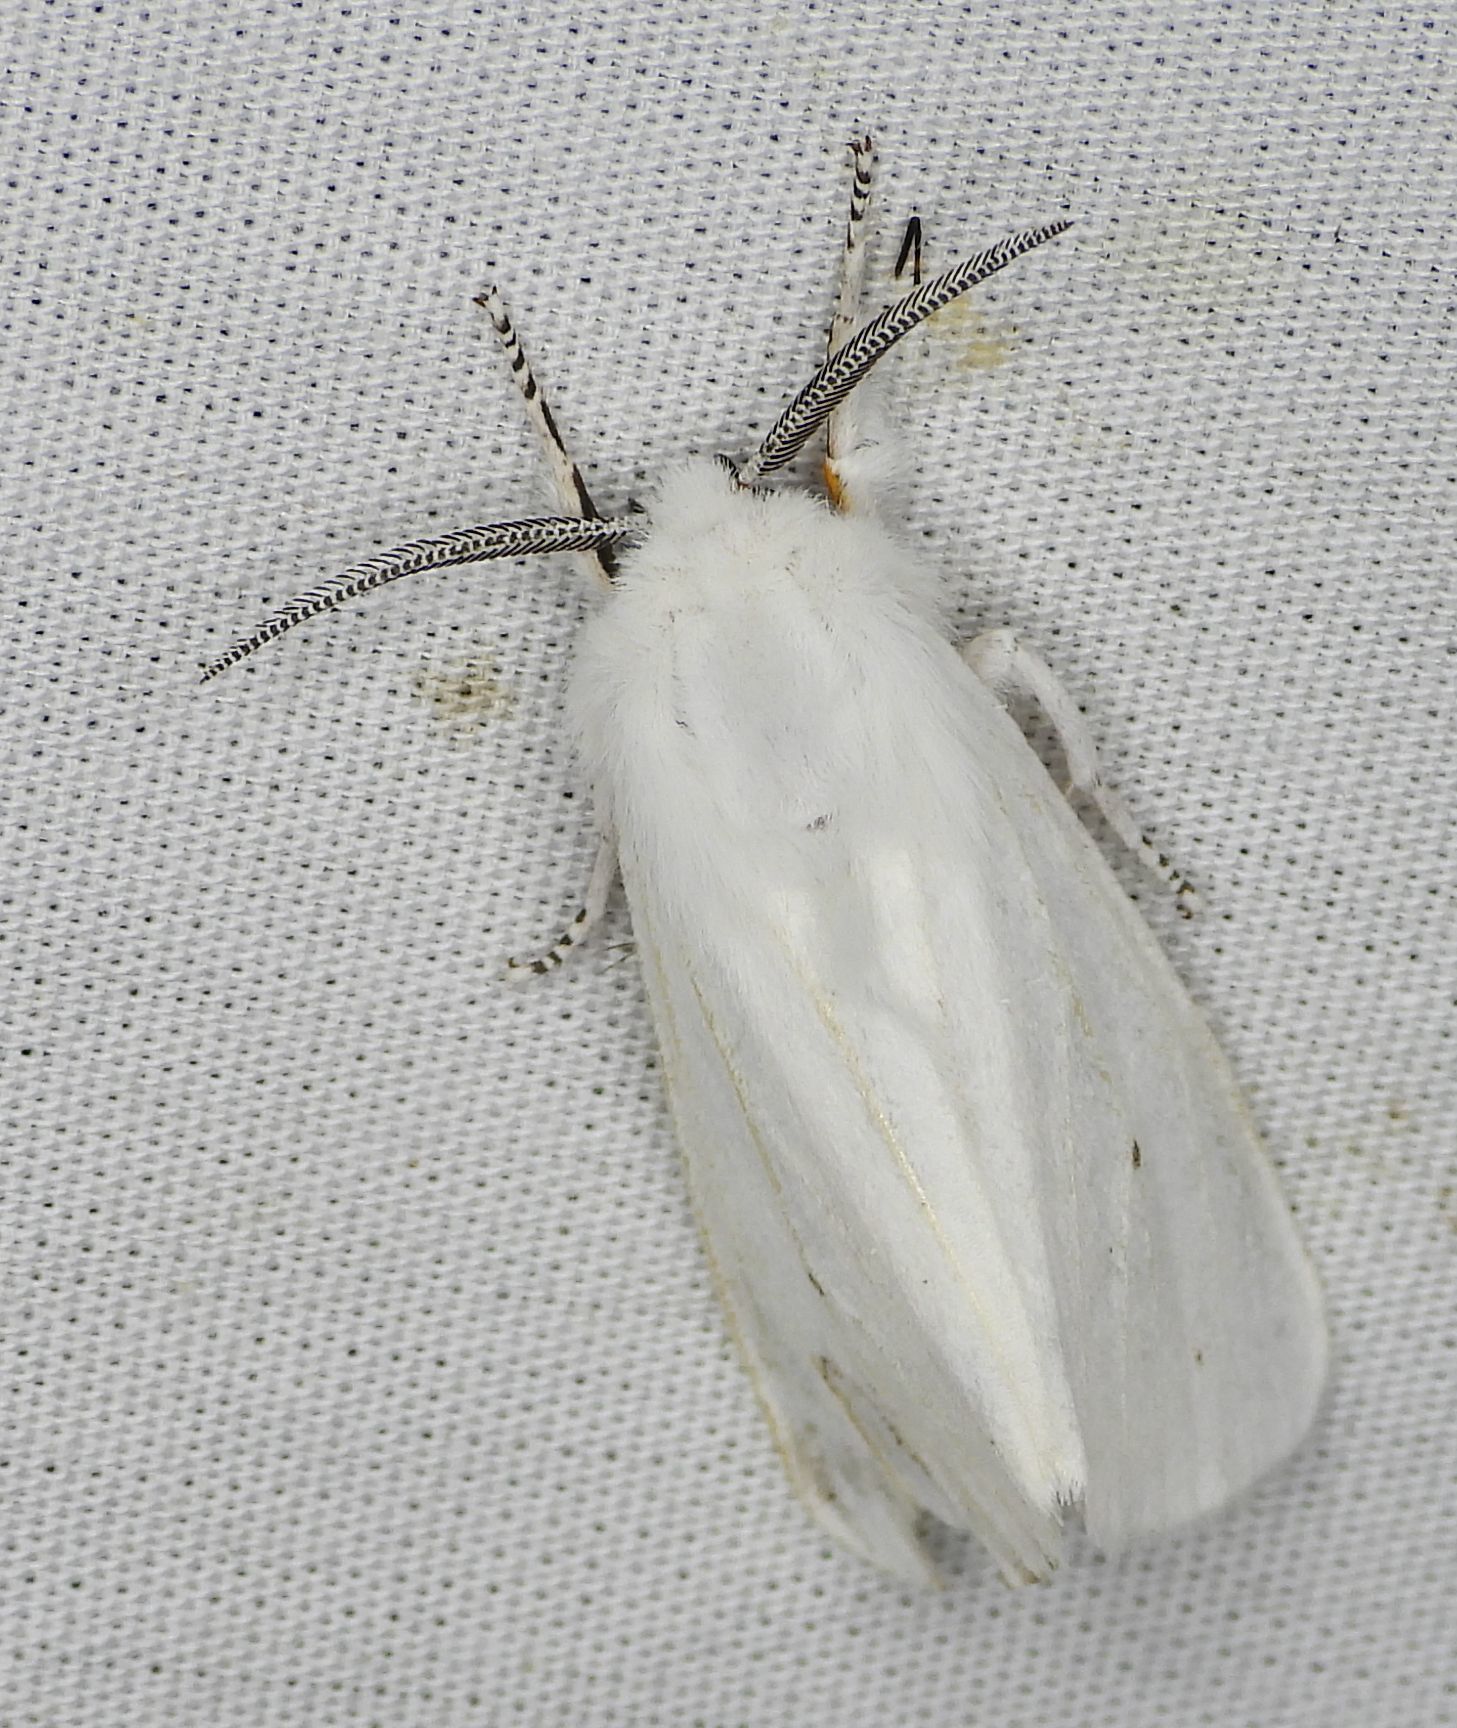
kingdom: Animalia
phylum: Arthropoda
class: Insecta
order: Lepidoptera
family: Erebidae
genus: Spilosoma
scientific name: Spilosoma virginica
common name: Virginia tiger moth
